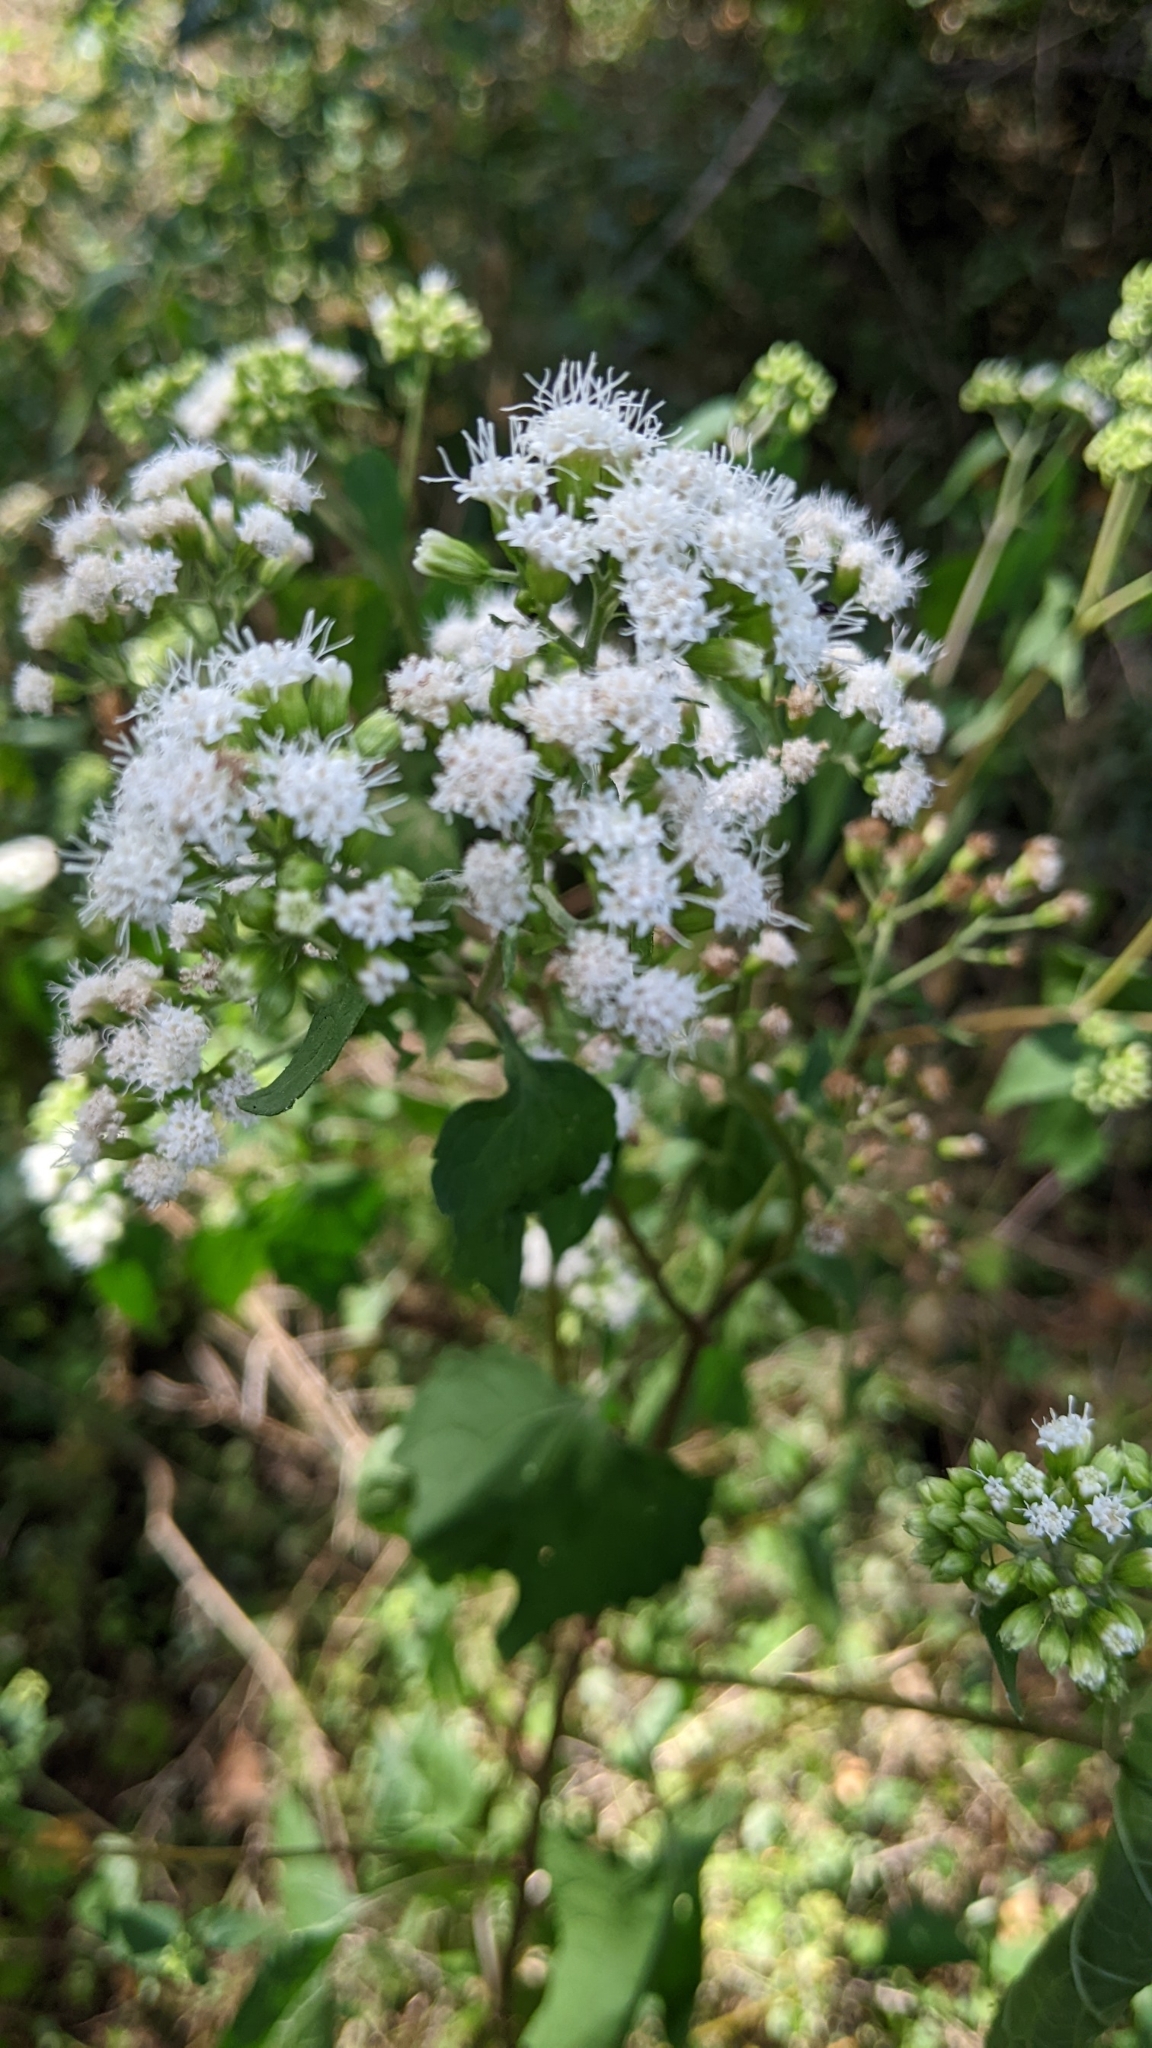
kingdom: Plantae
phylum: Tracheophyta
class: Magnoliopsida
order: Asterales
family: Asteraceae
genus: Ageratina
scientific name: Ageratina altissima
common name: White snakeroot
